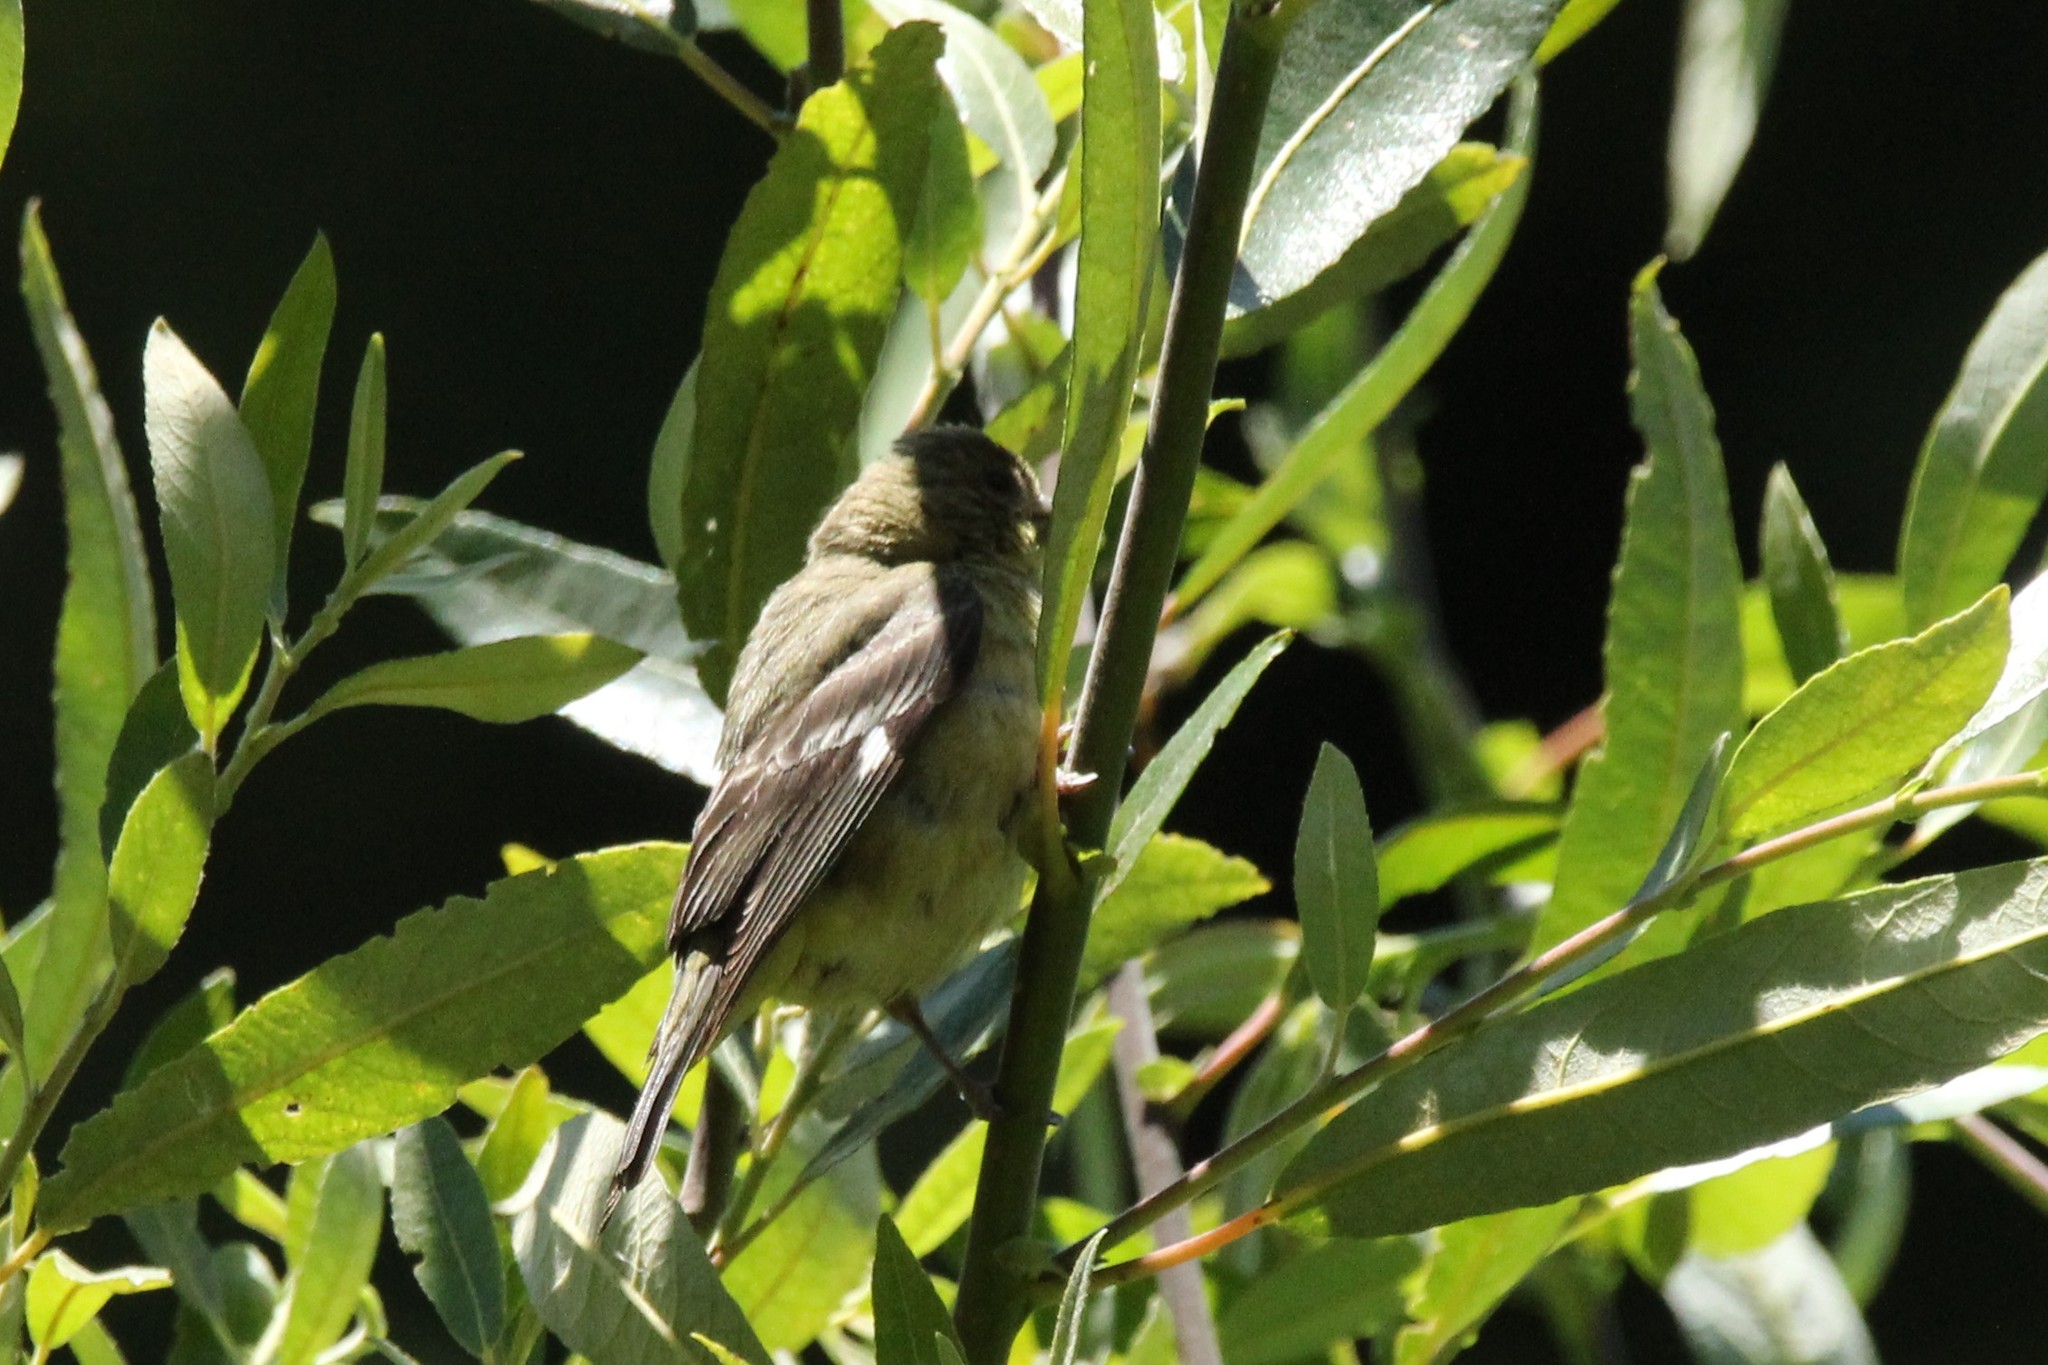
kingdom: Animalia
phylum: Chordata
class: Aves
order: Passeriformes
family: Fringillidae
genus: Spinus
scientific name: Spinus psaltria
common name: Lesser goldfinch
